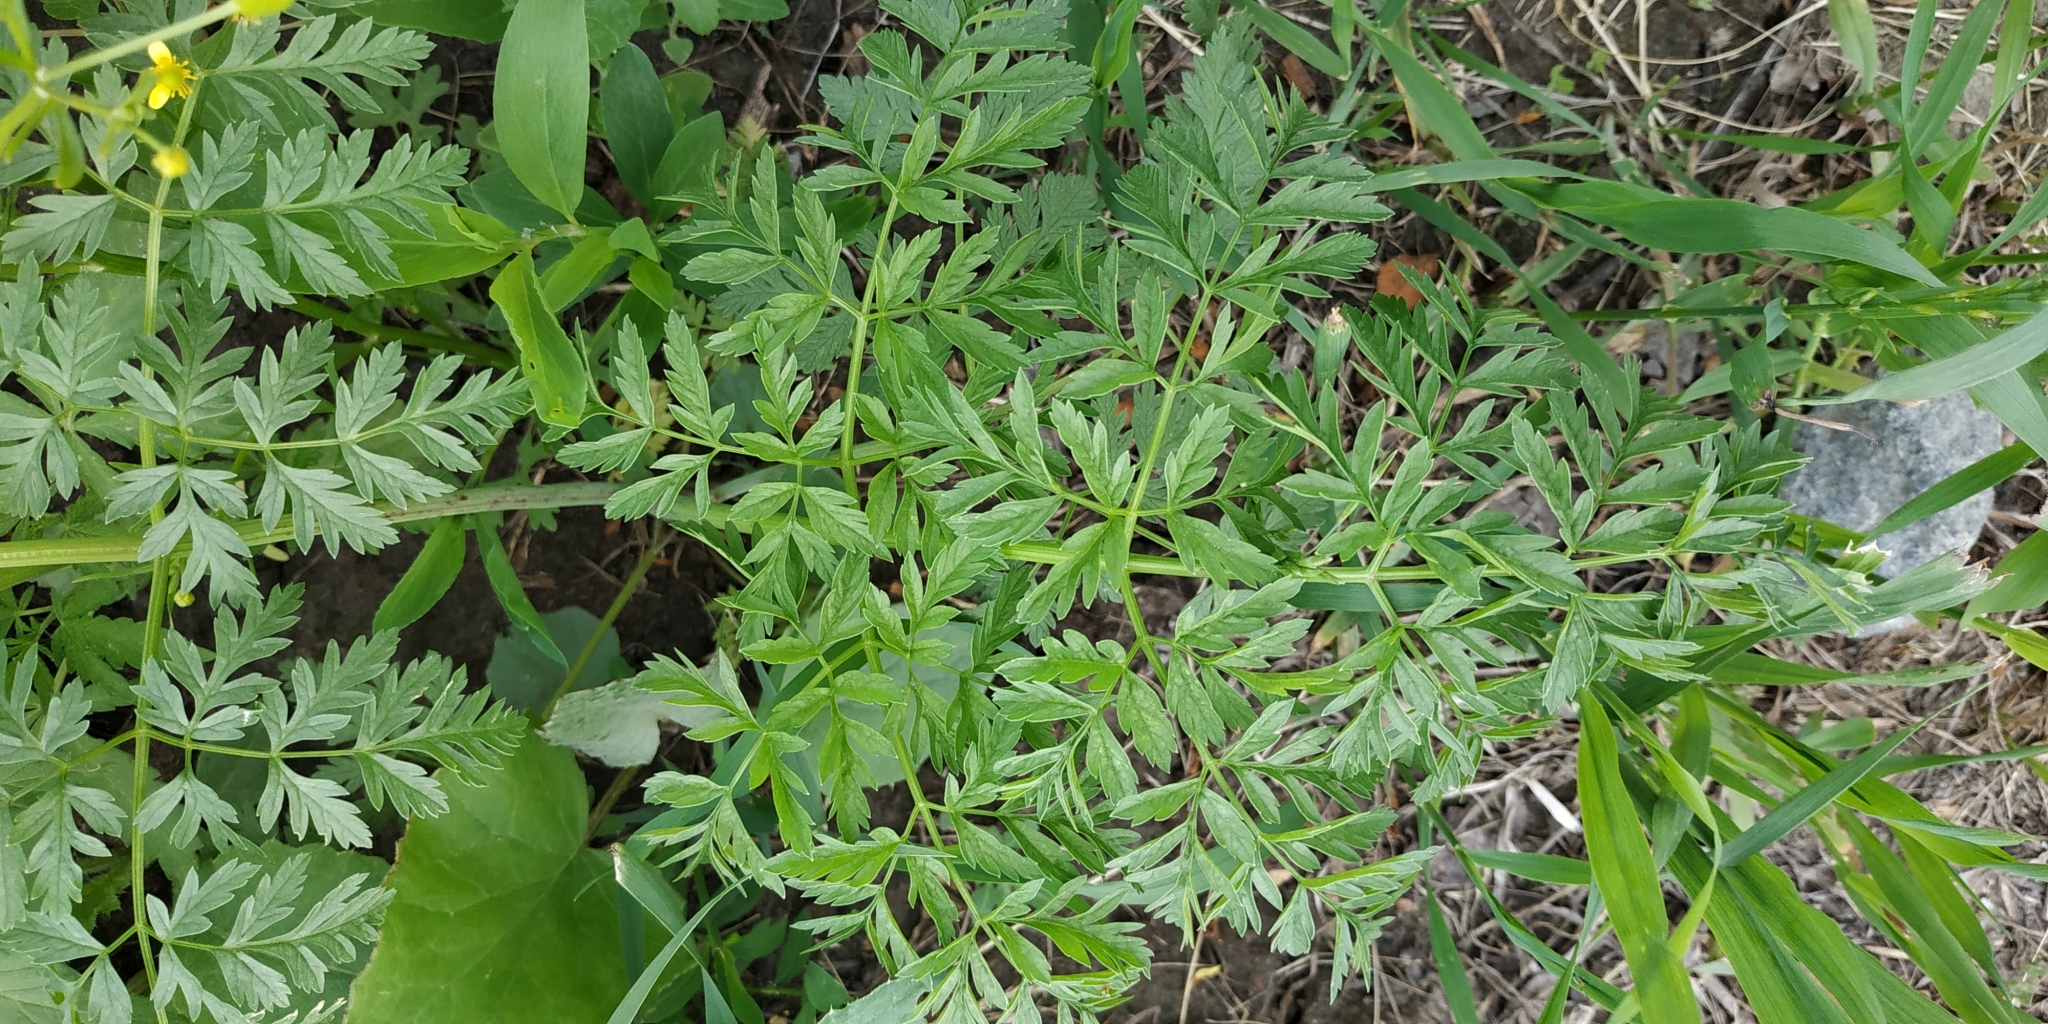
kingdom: Plantae
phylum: Tracheophyta
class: Magnoliopsida
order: Apiales
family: Apiaceae
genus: Conium
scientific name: Conium maculatum
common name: Hemlock
